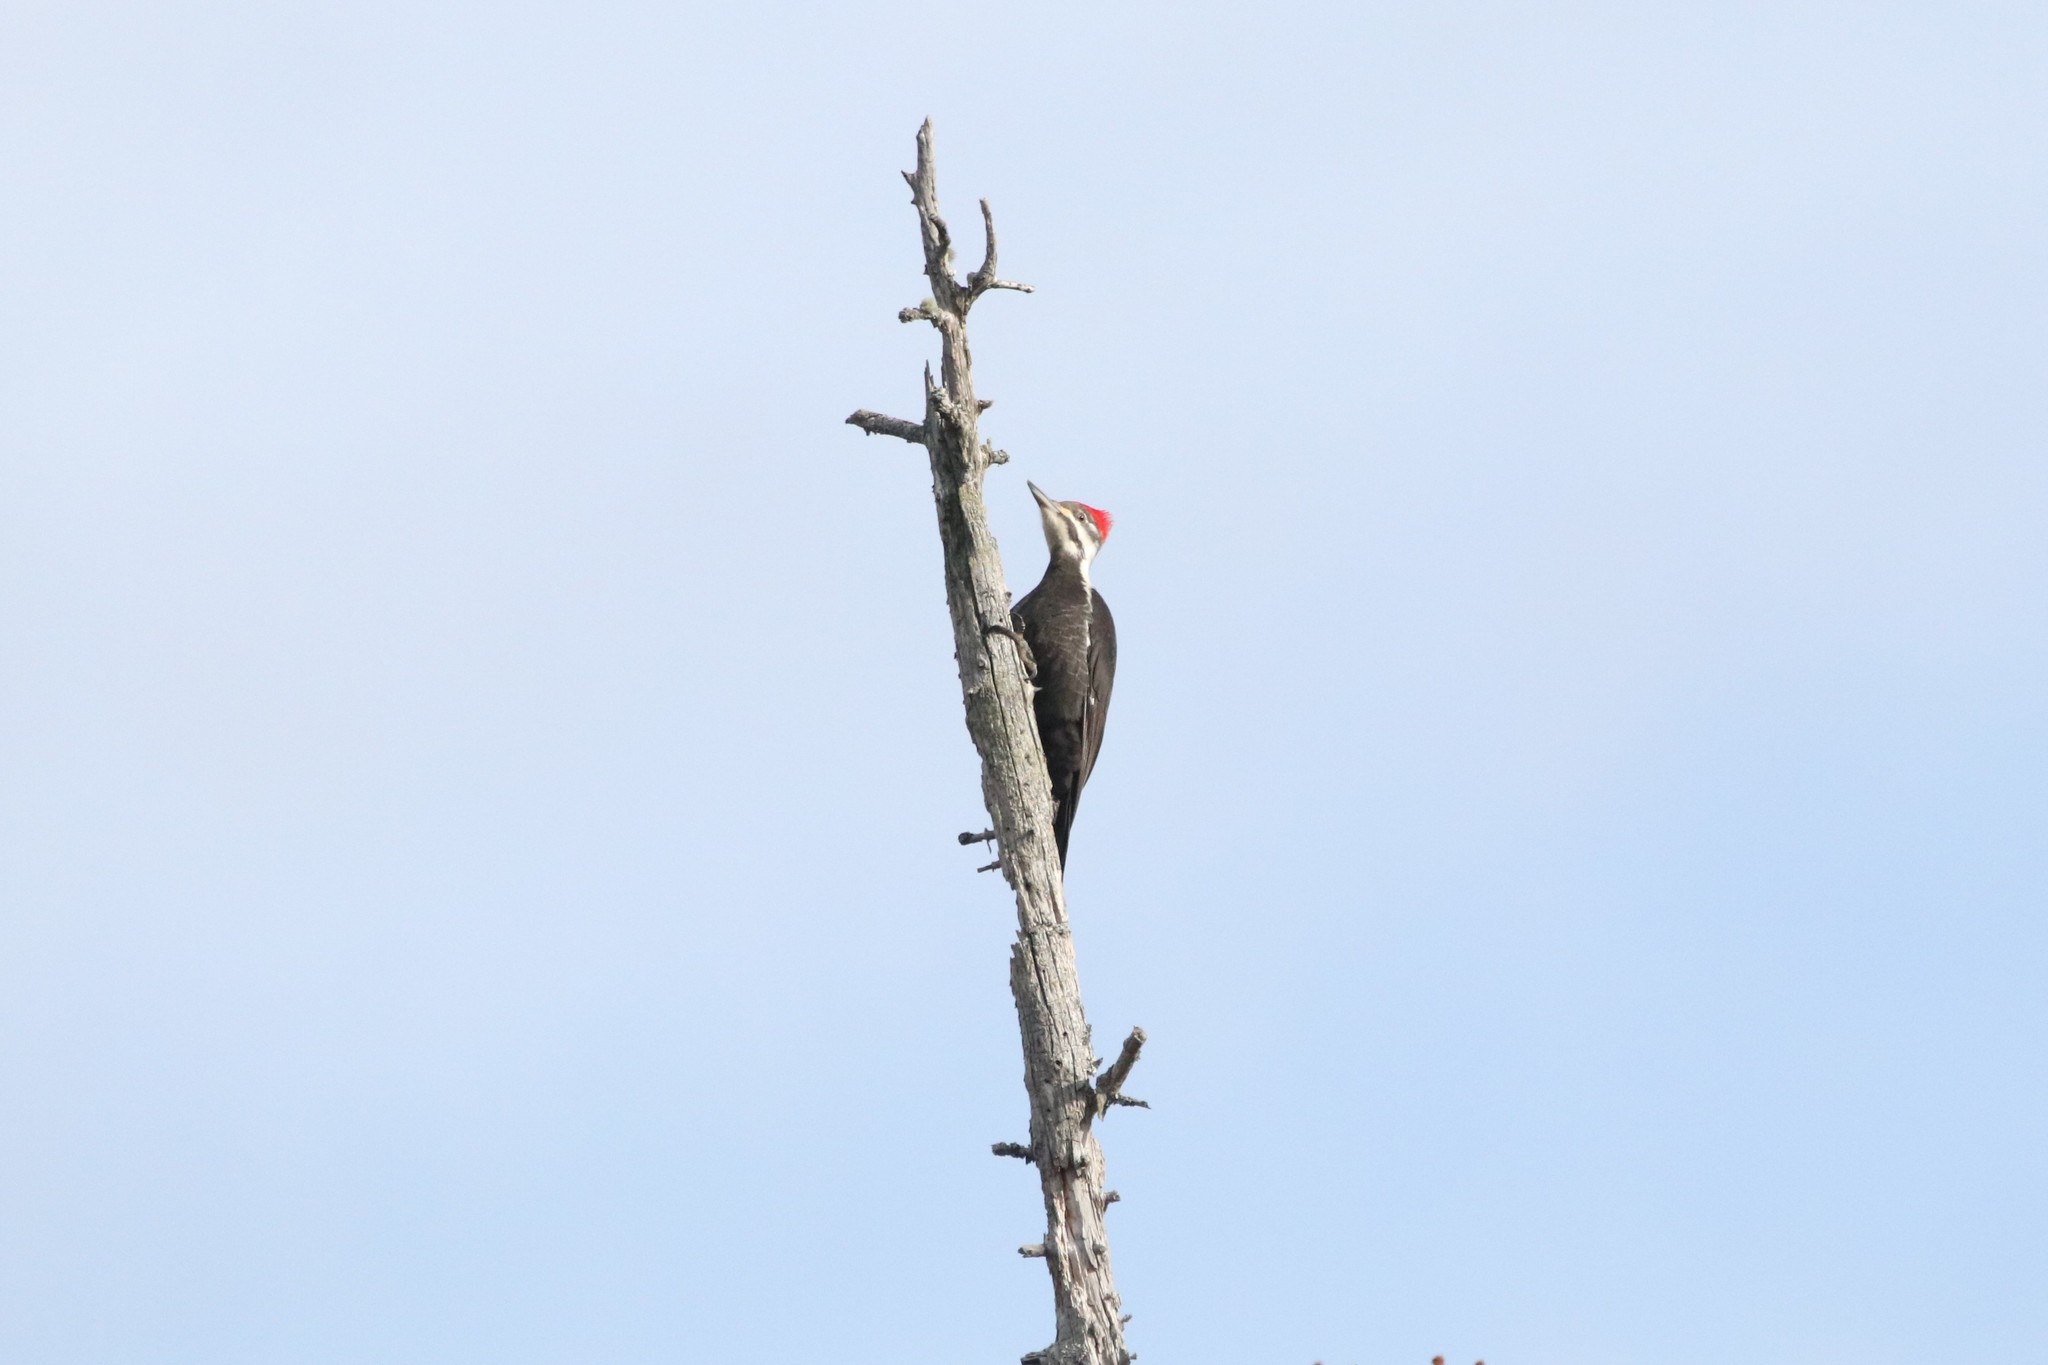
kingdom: Animalia
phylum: Chordata
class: Aves
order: Piciformes
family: Picidae
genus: Dryocopus
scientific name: Dryocopus pileatus
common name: Pileated woodpecker
